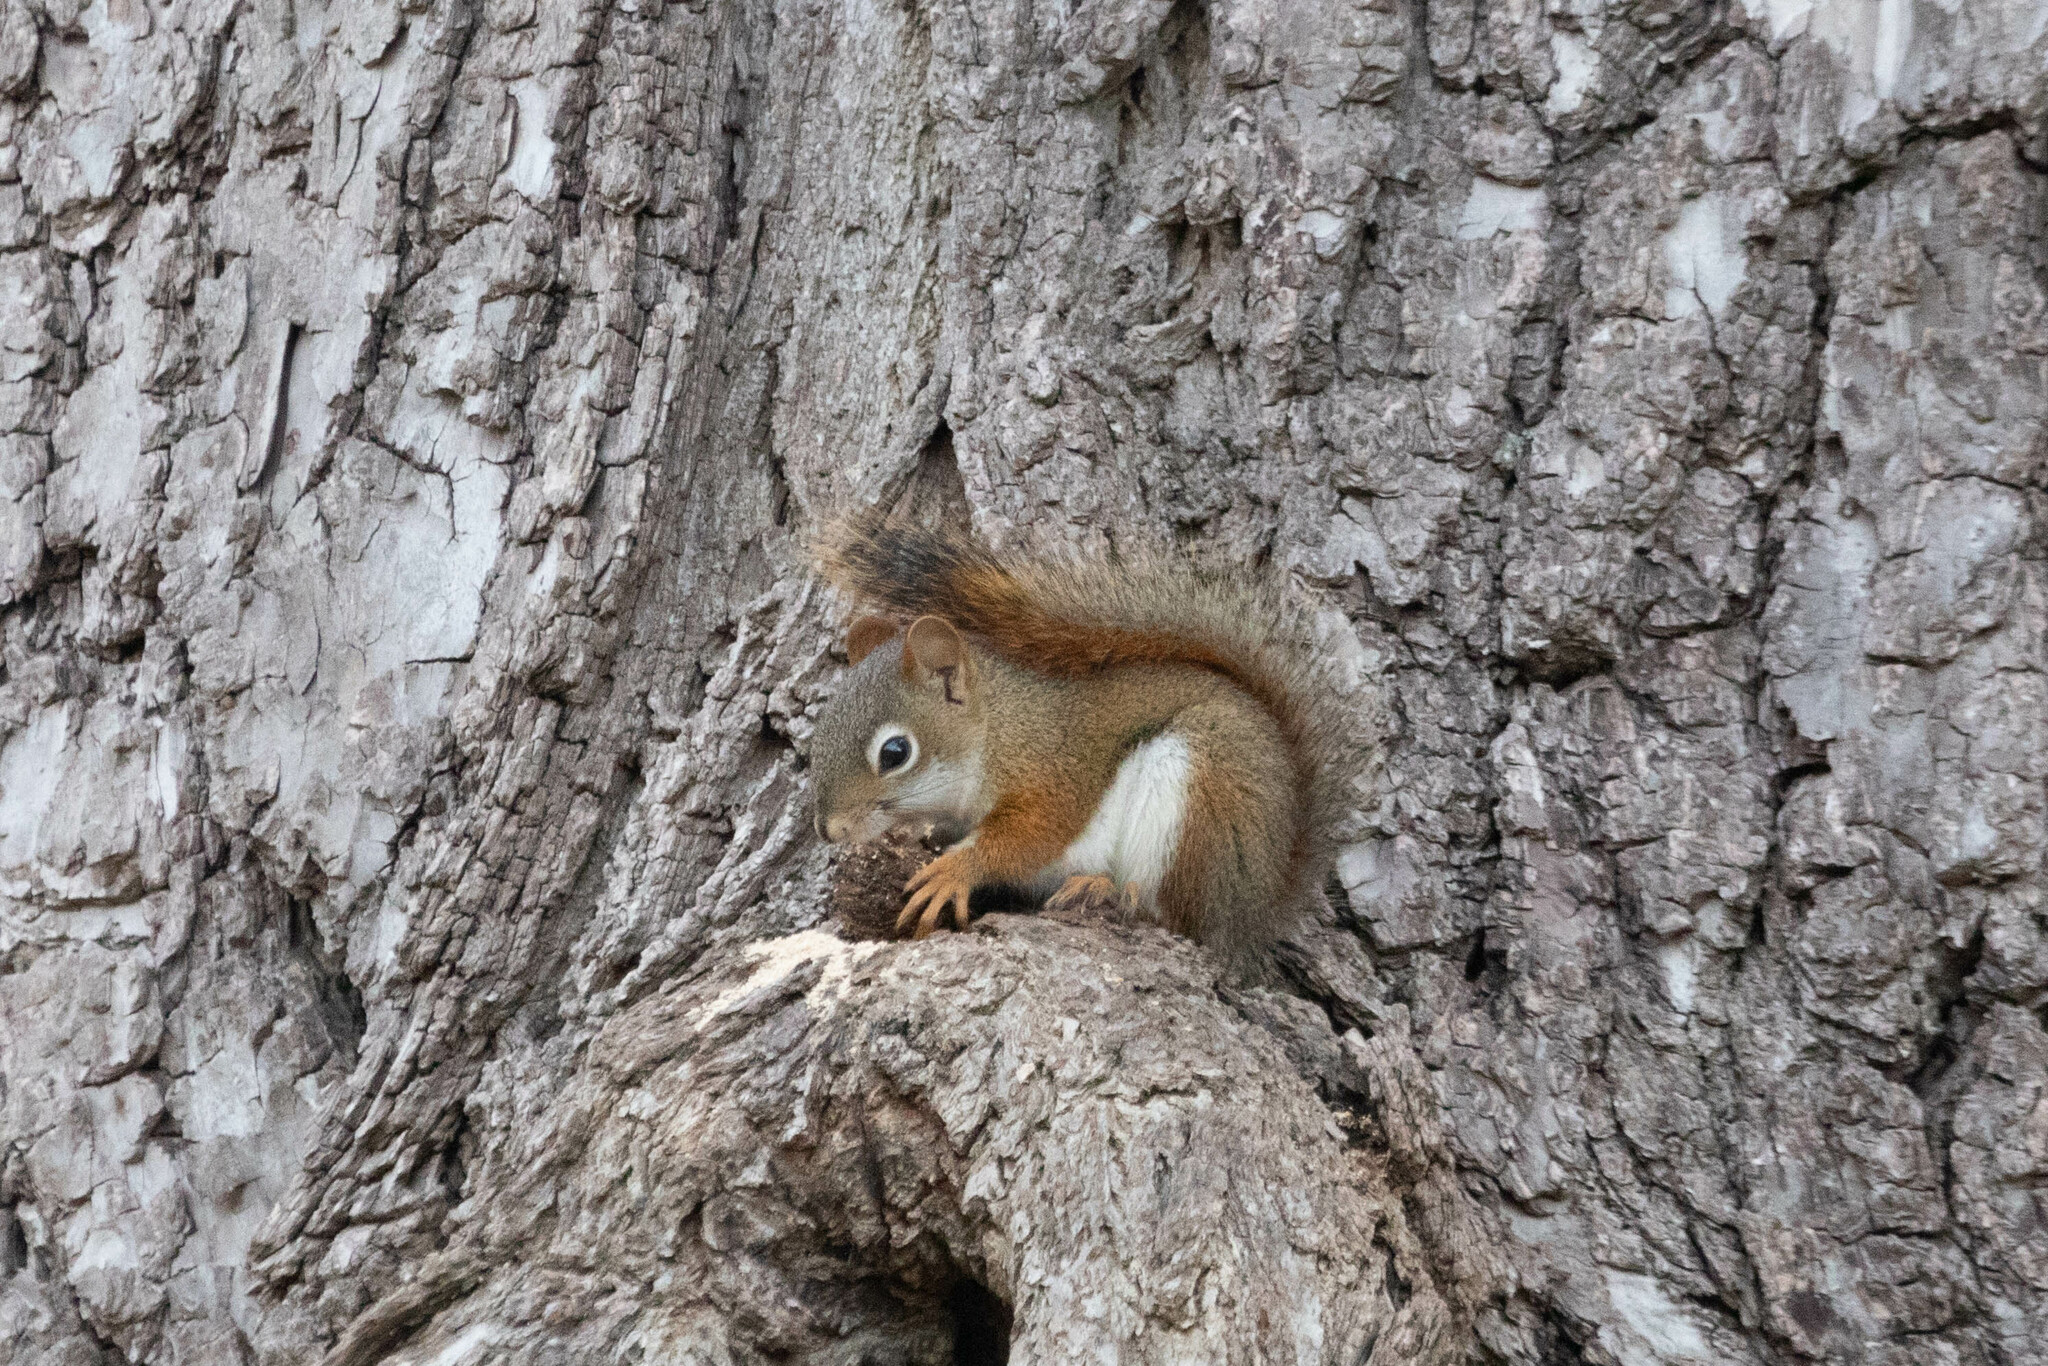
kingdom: Animalia
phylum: Chordata
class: Mammalia
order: Rodentia
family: Sciuridae
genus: Tamiasciurus
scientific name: Tamiasciurus hudsonicus
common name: Red squirrel
